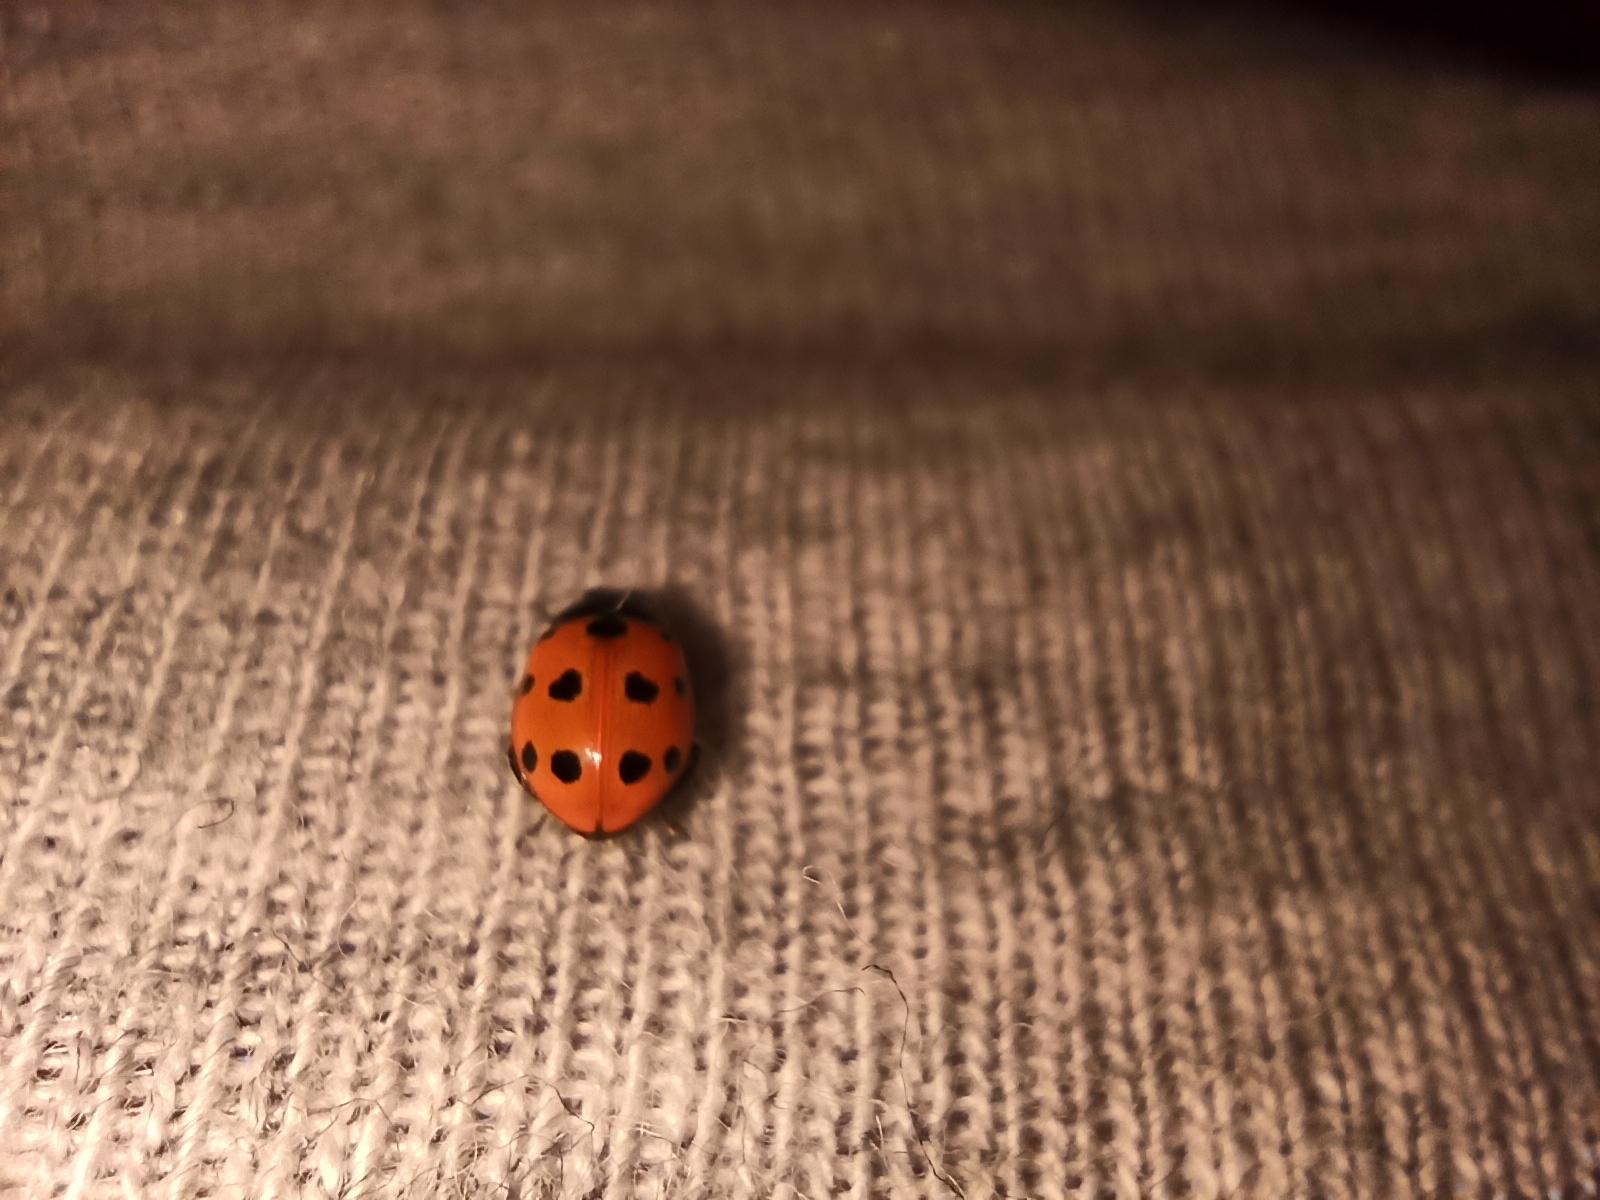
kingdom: Animalia
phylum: Arthropoda
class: Insecta
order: Coleoptera
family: Coccinellidae
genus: Coccinella
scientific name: Coccinella undecimpunctata
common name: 11-spot ladybird
